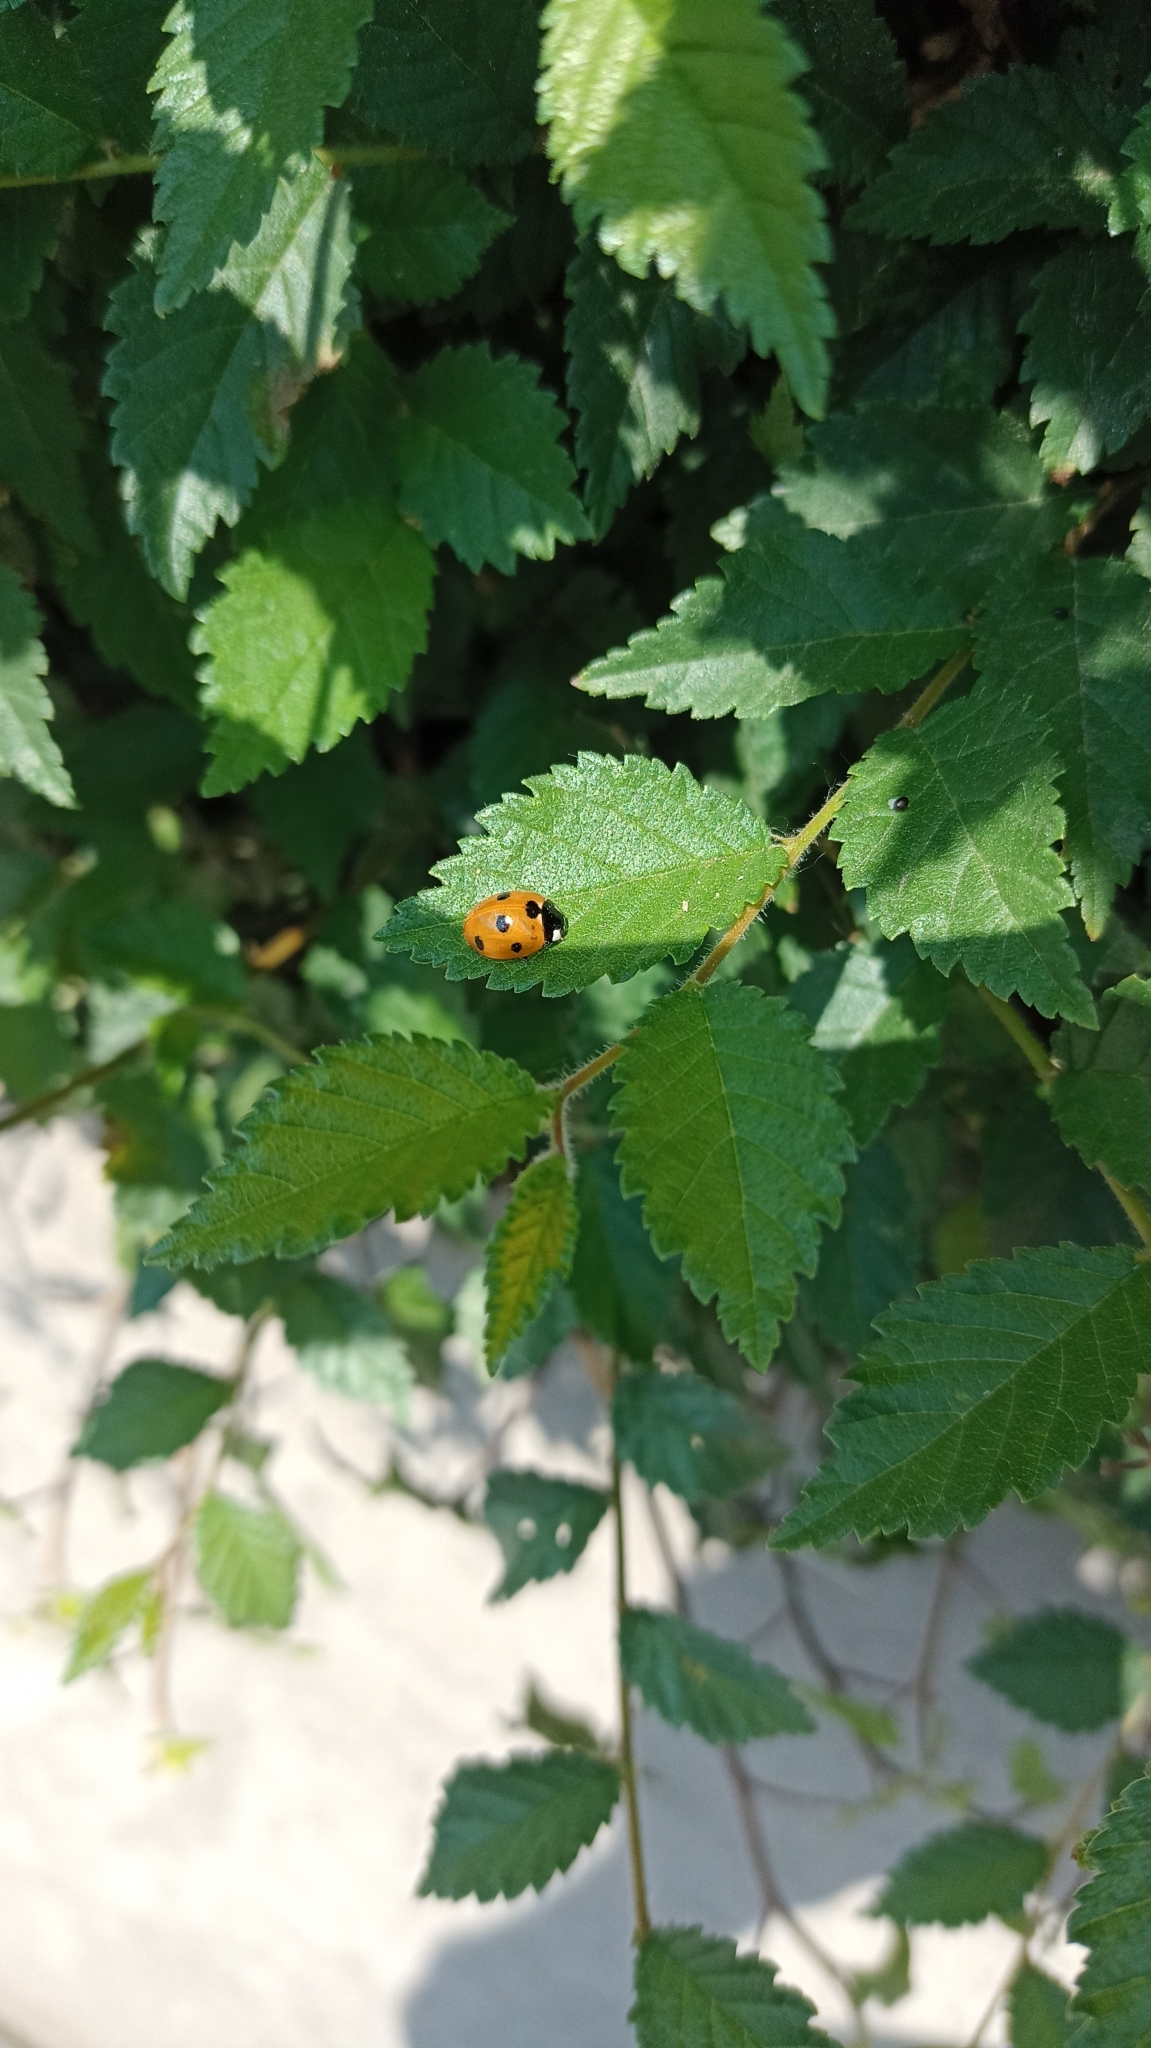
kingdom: Animalia
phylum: Arthropoda
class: Insecta
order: Coleoptera
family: Coccinellidae
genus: Coccinella
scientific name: Coccinella septempunctata
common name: Sevenspotted lady beetle
